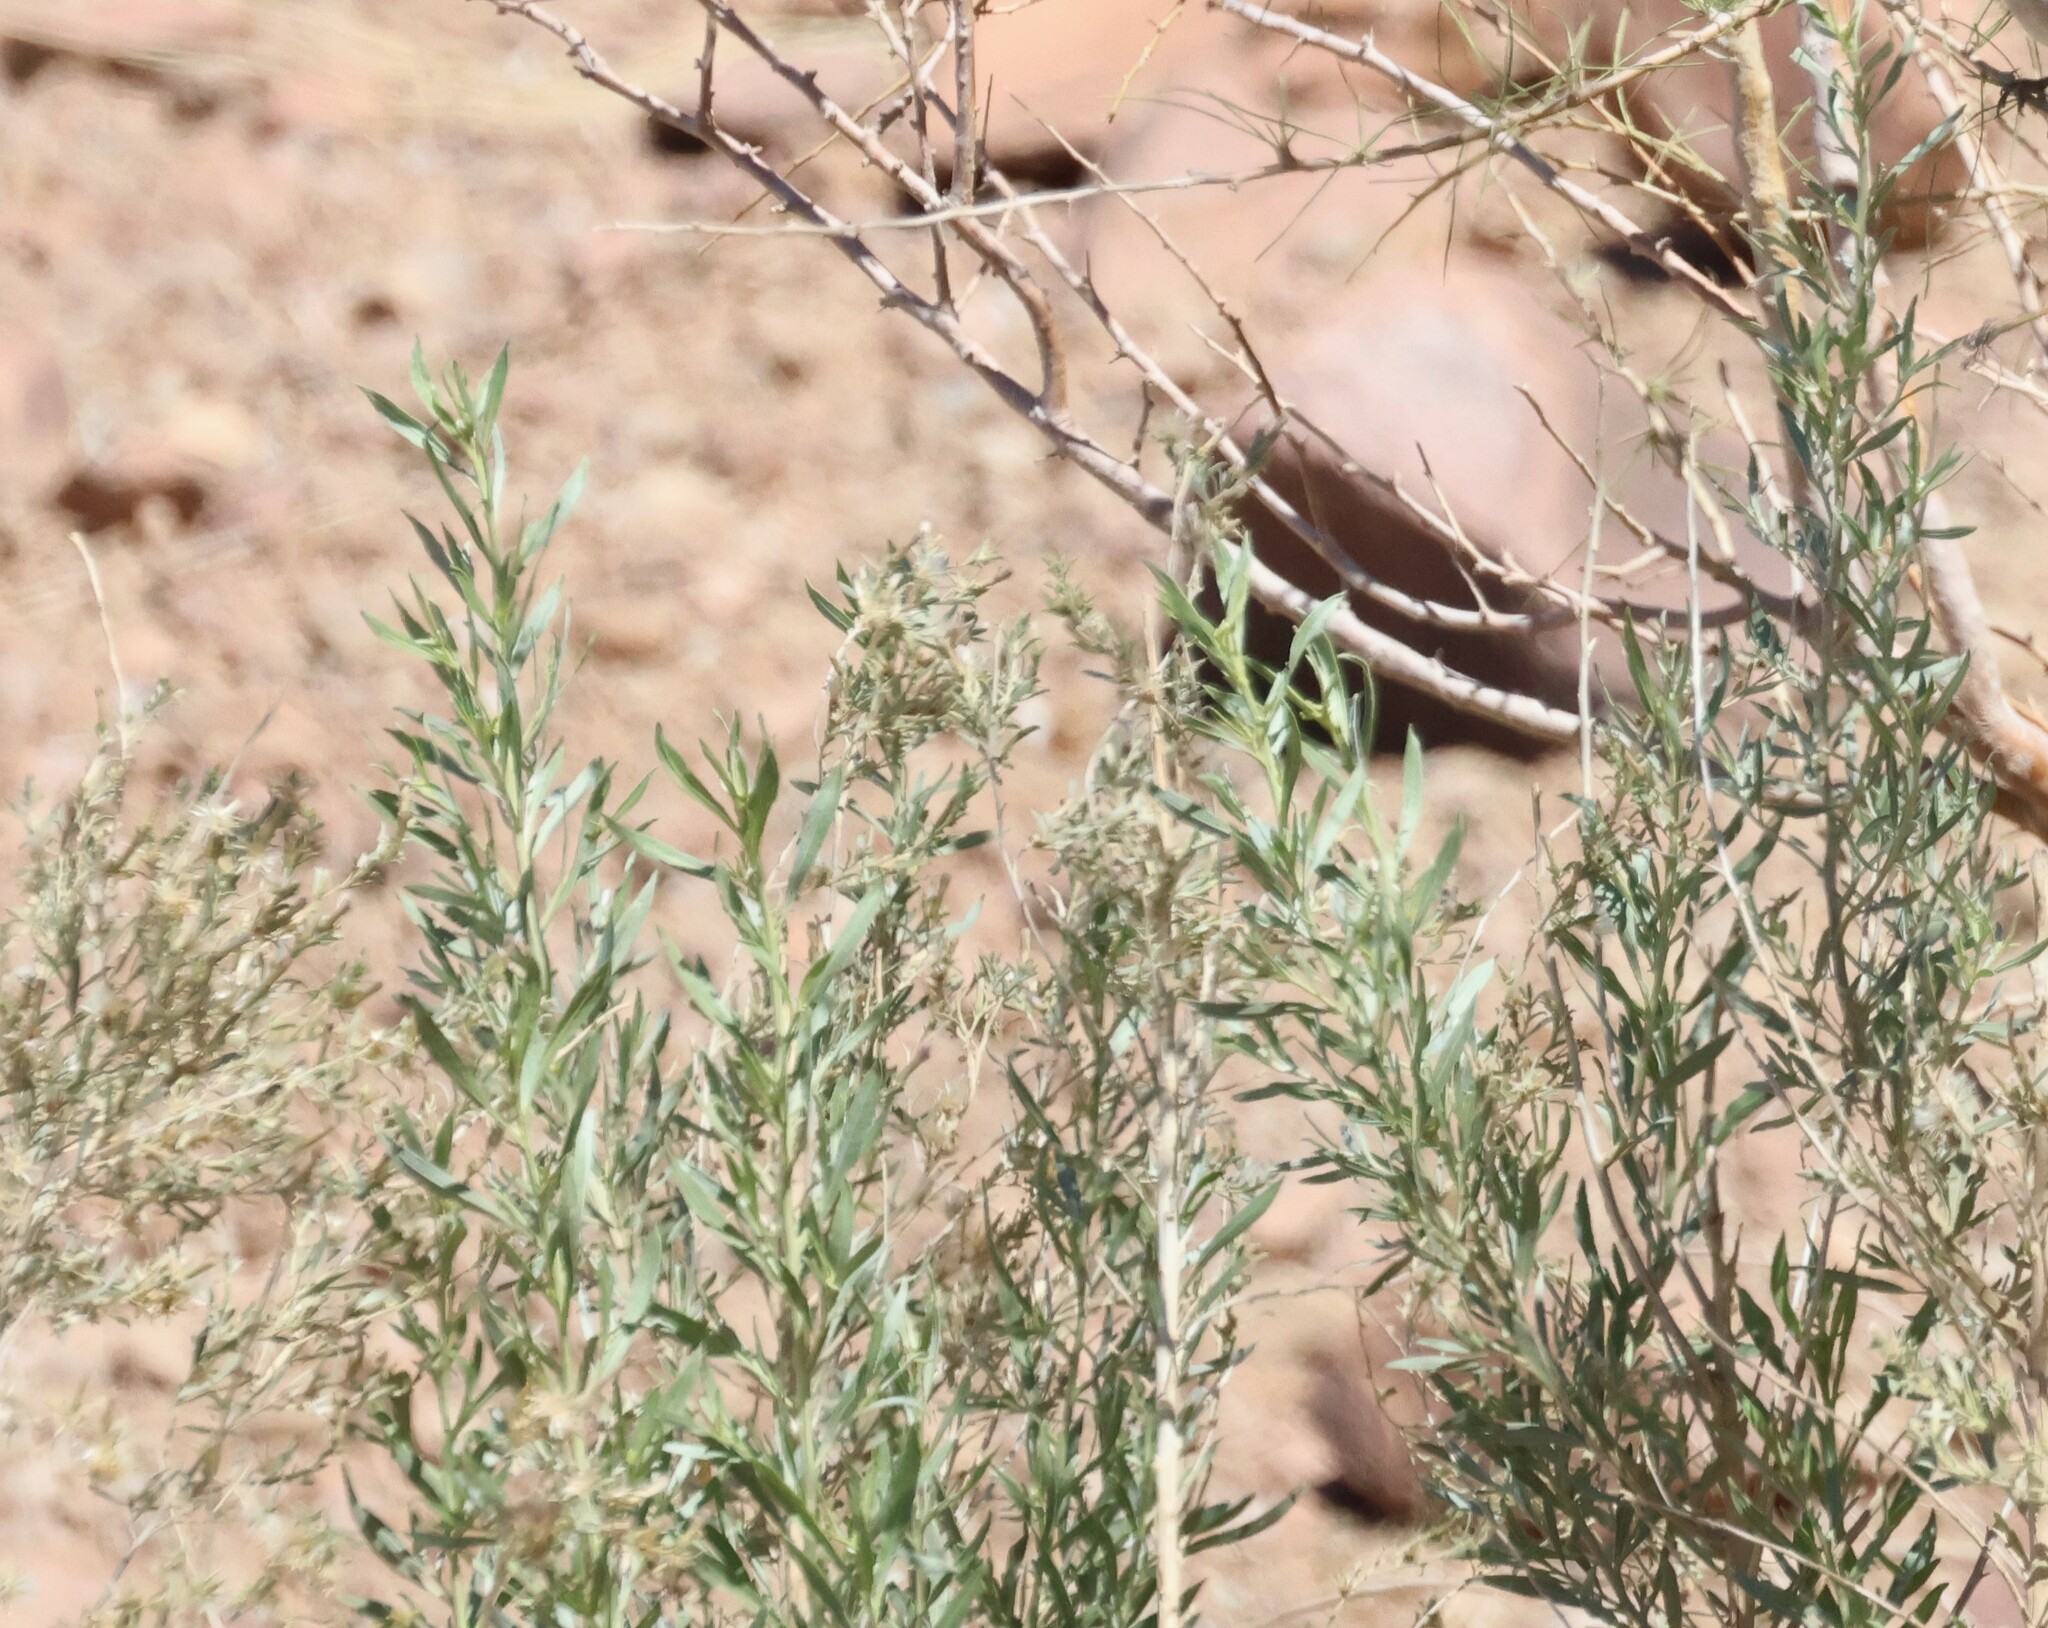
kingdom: Plantae
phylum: Tracheophyta
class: Magnoliopsida
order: Asterales
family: Asteraceae
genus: Pechuel-loeschea
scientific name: Pechuel-loeschea leubnitziae
